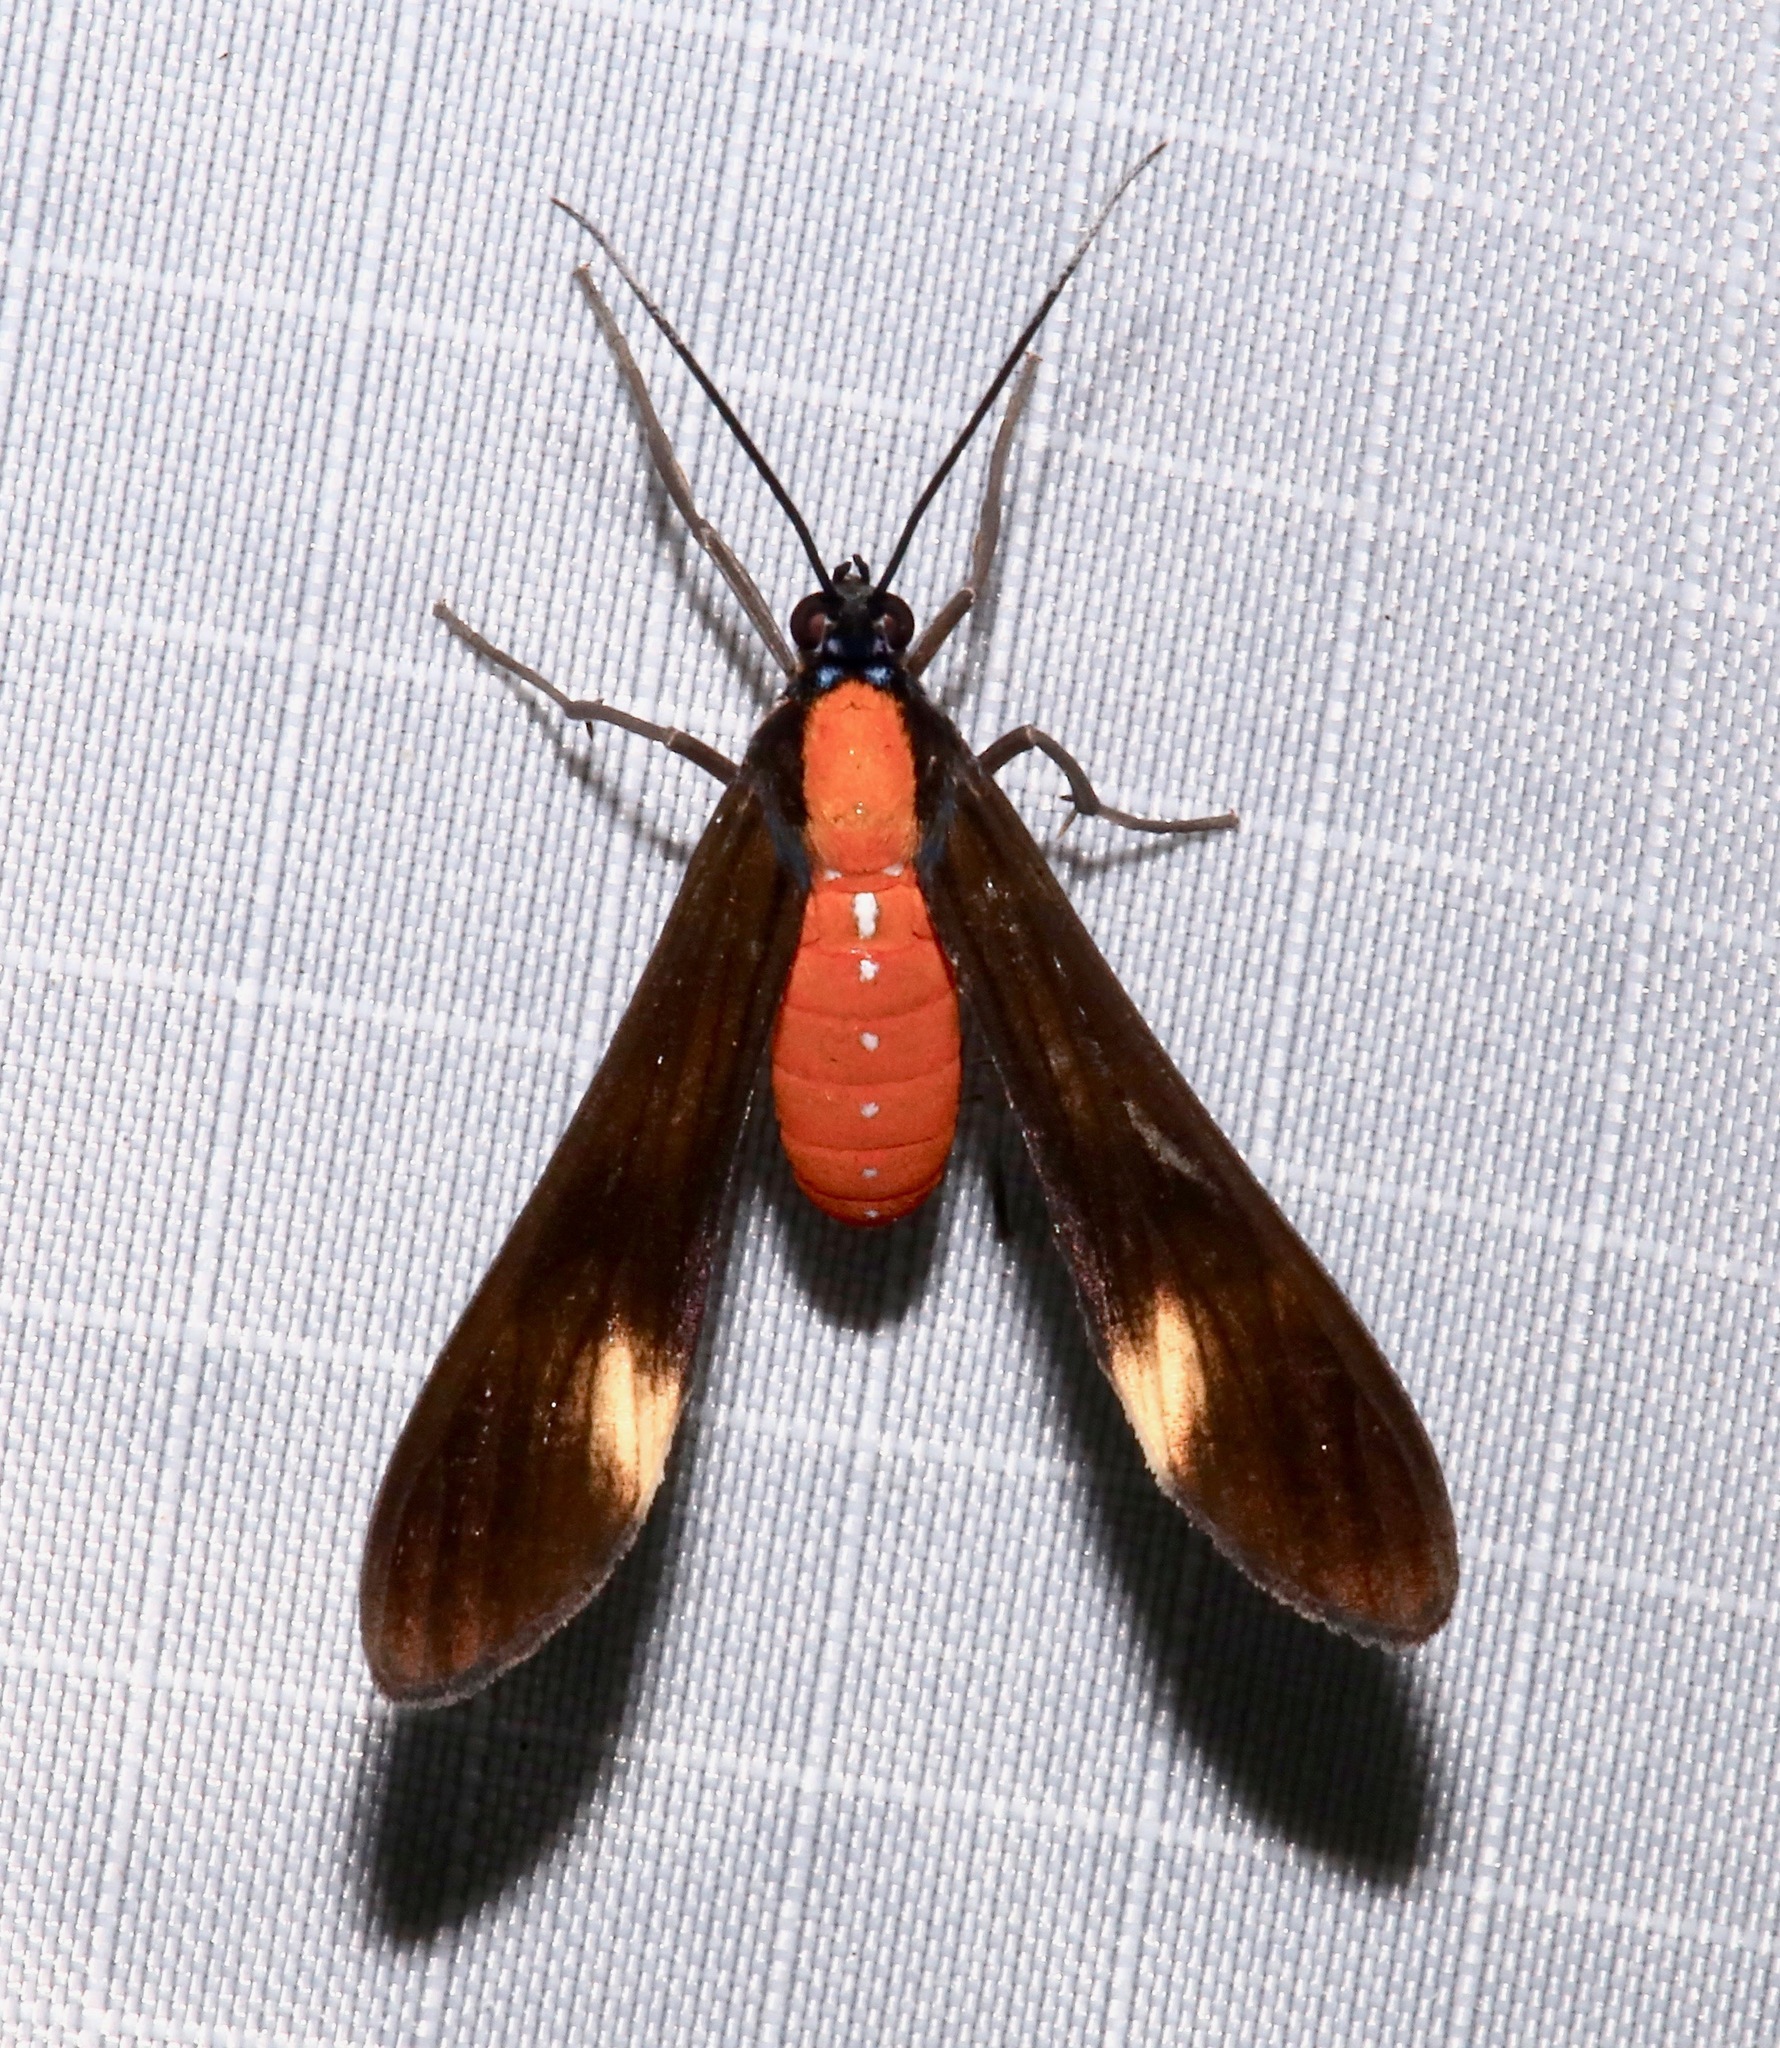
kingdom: Animalia
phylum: Arthropoda
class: Insecta
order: Lepidoptera
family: Erebidae
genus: Rhynchopyga
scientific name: Rhynchopyga elongata
